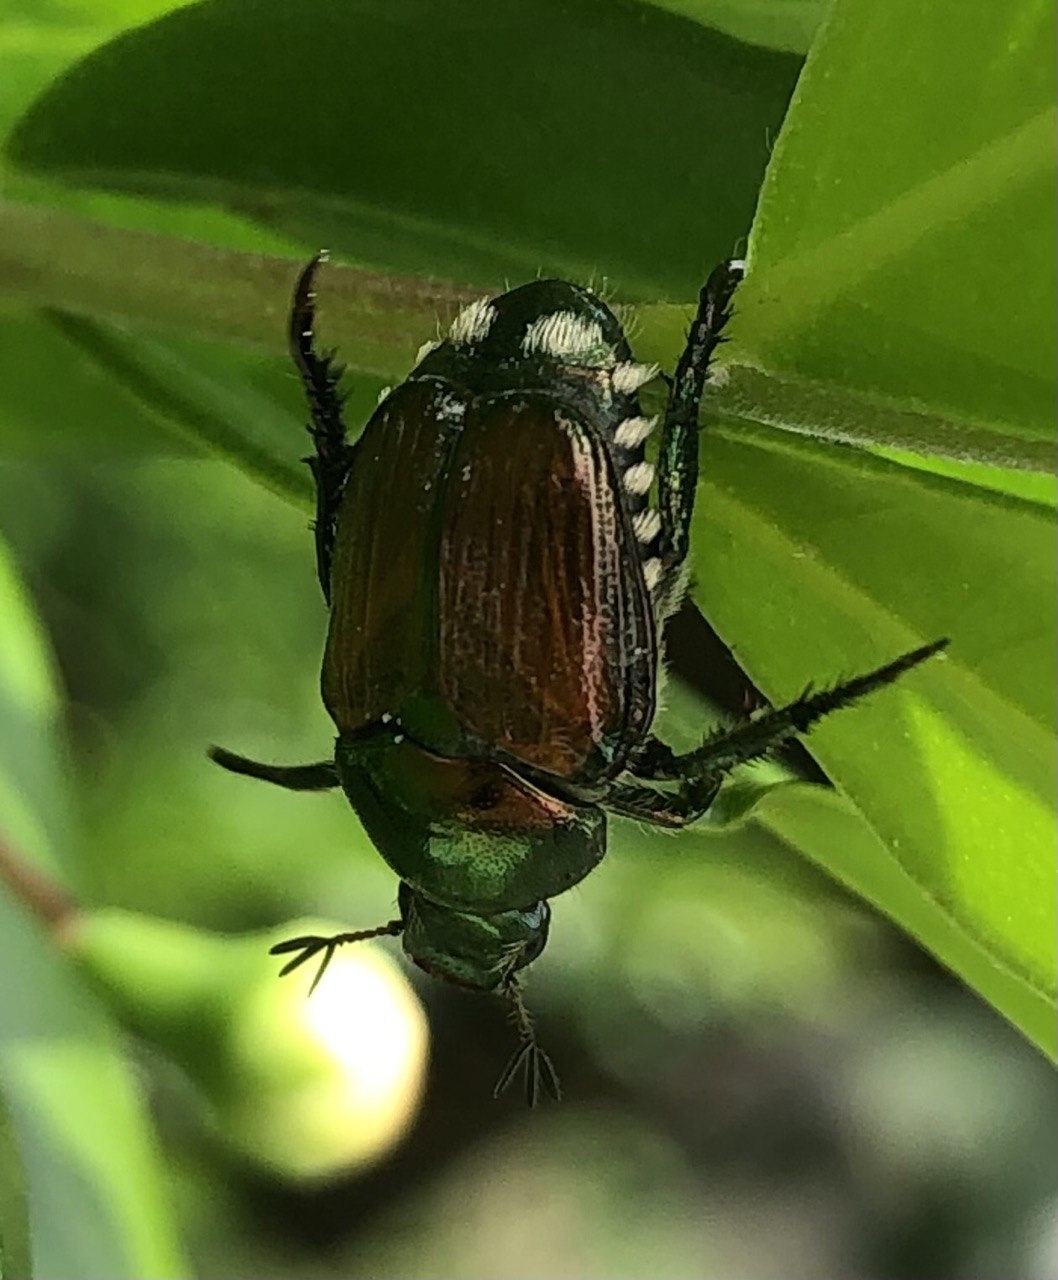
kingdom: Animalia
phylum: Arthropoda
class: Insecta
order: Coleoptera
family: Scarabaeidae
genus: Popillia
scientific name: Popillia japonica
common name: Japanese beetle
